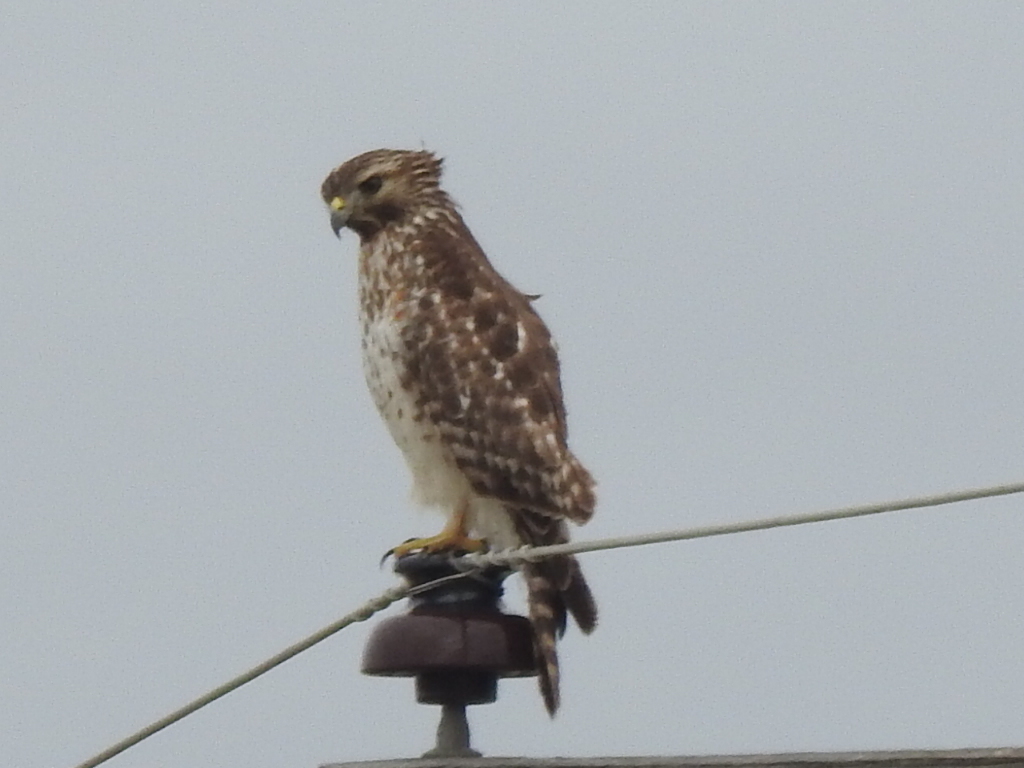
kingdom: Animalia
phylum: Chordata
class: Aves
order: Accipitriformes
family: Accipitridae
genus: Buteo
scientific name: Buteo lineatus
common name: Red-shouldered hawk
